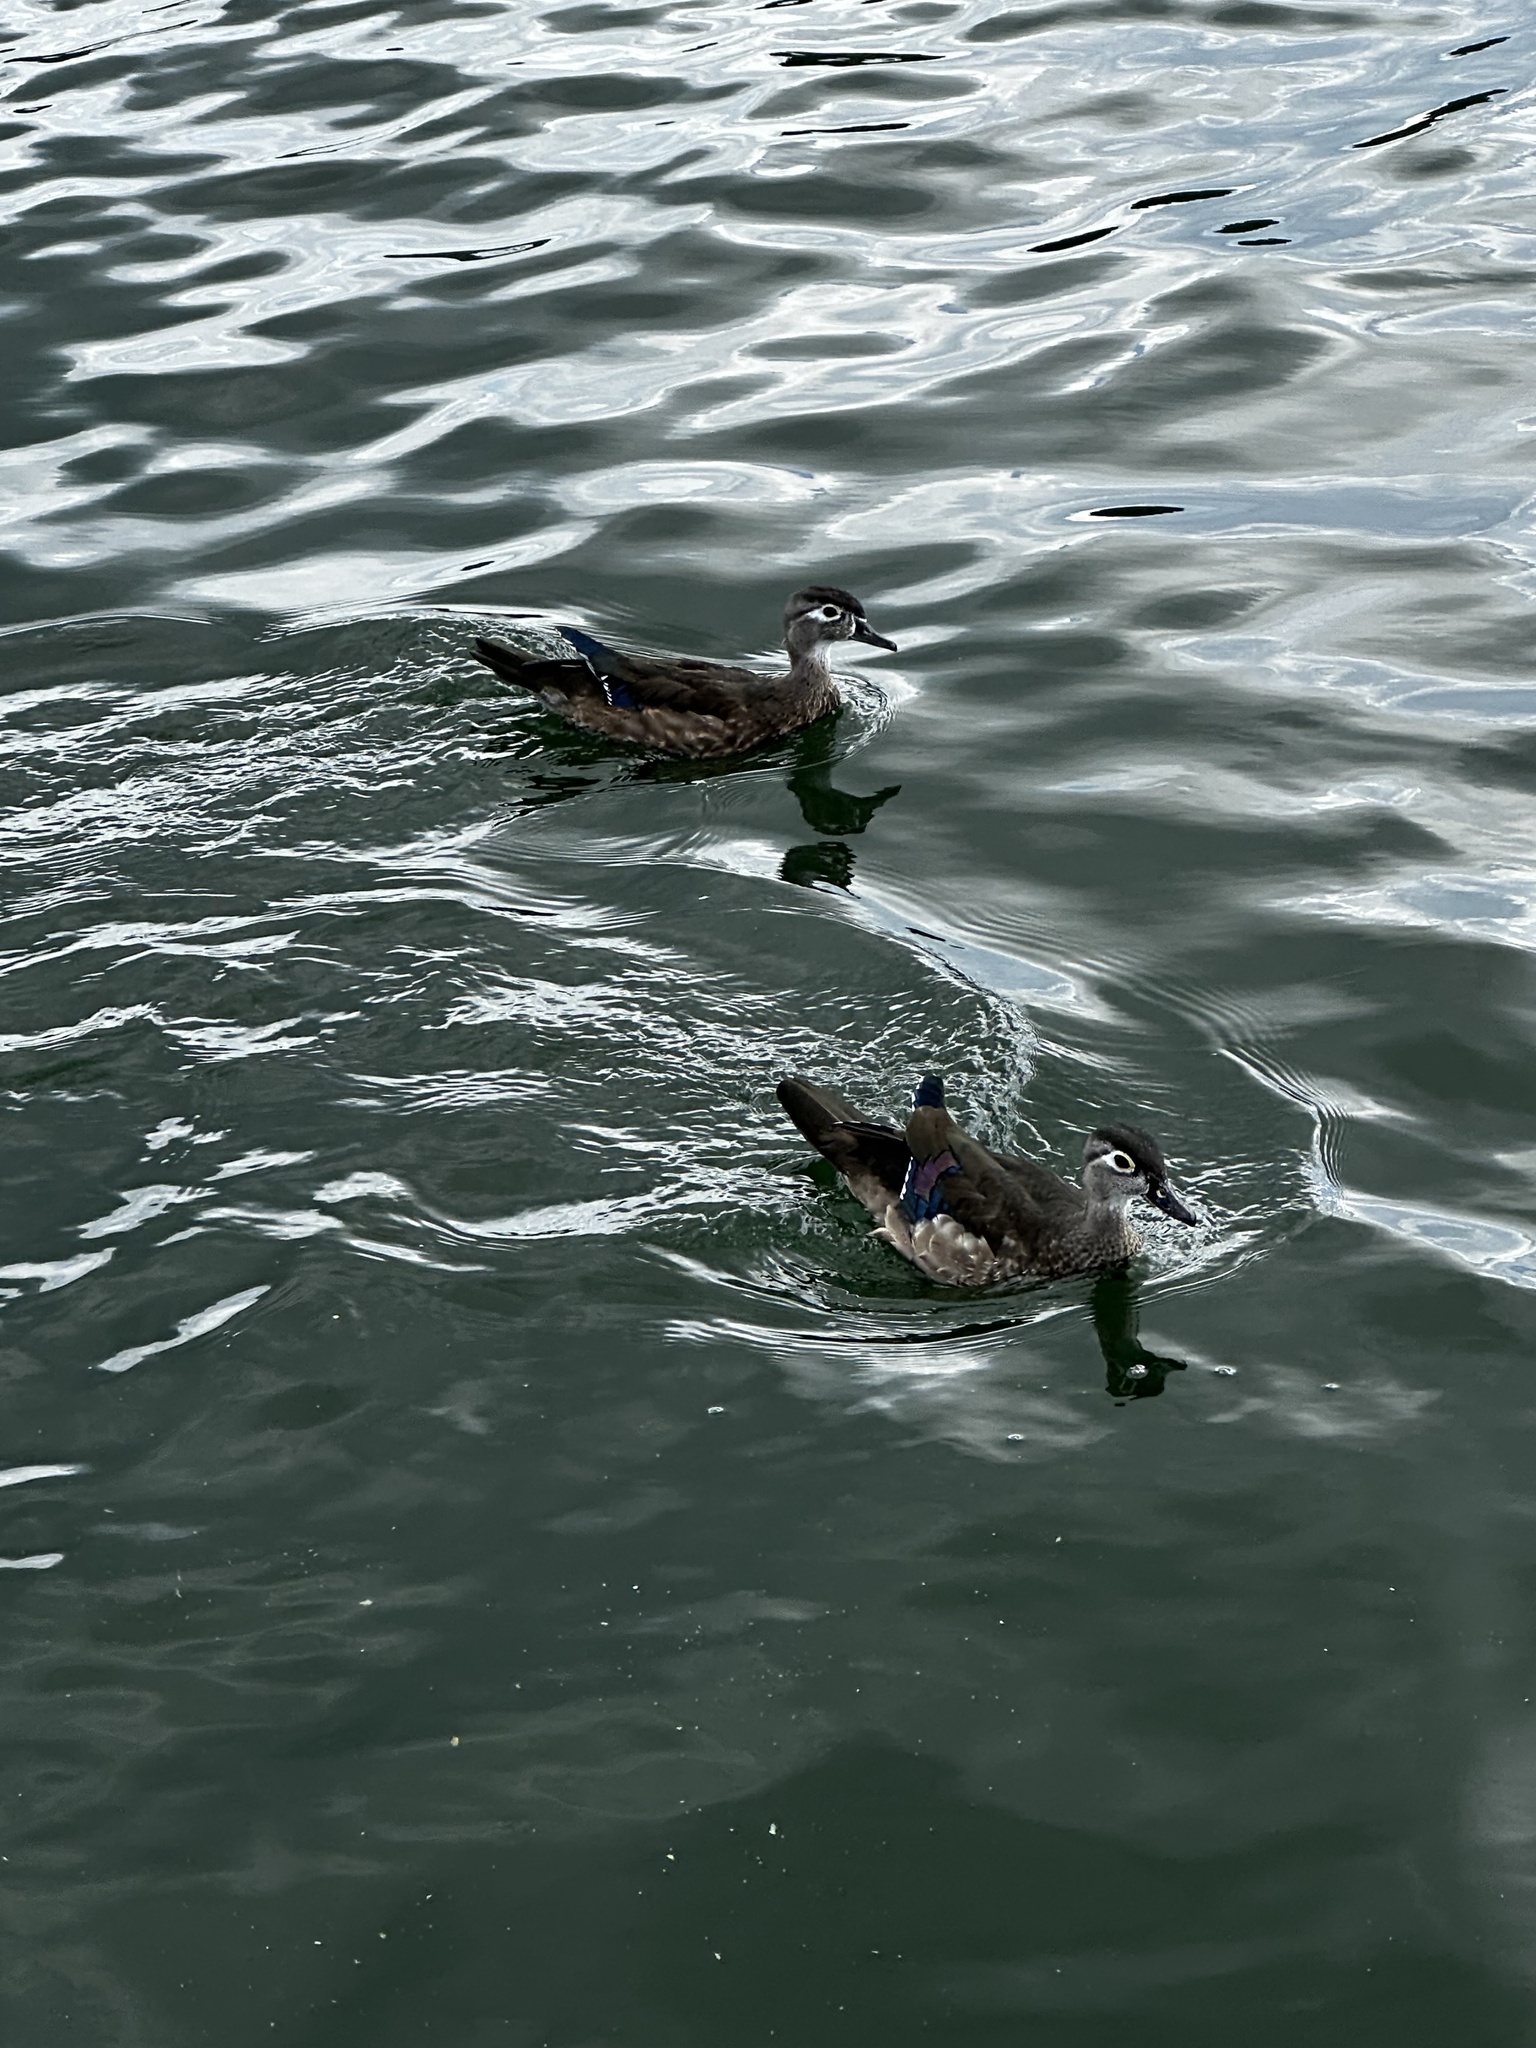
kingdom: Animalia
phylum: Chordata
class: Aves
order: Anseriformes
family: Anatidae
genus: Aix
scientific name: Aix sponsa
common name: Wood duck
